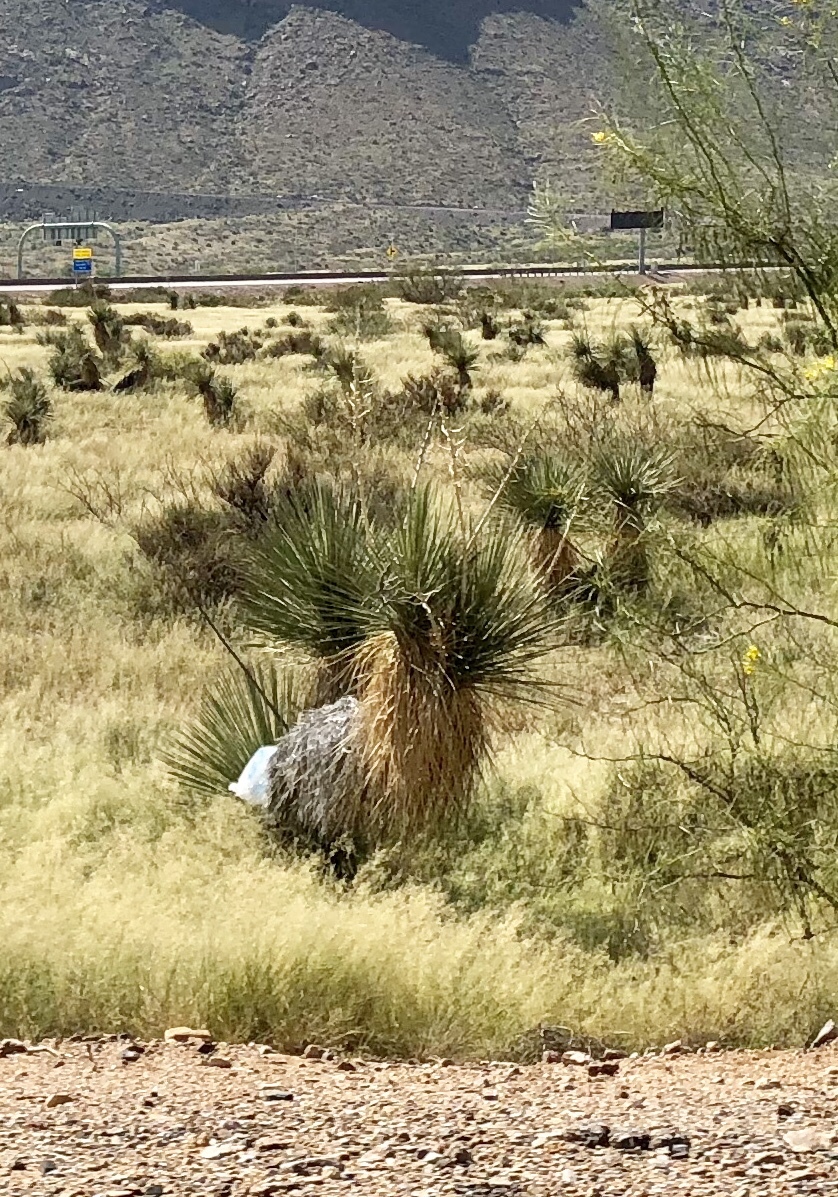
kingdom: Plantae
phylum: Tracheophyta
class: Liliopsida
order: Asparagales
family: Asparagaceae
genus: Yucca
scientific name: Yucca elata
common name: Palmella
